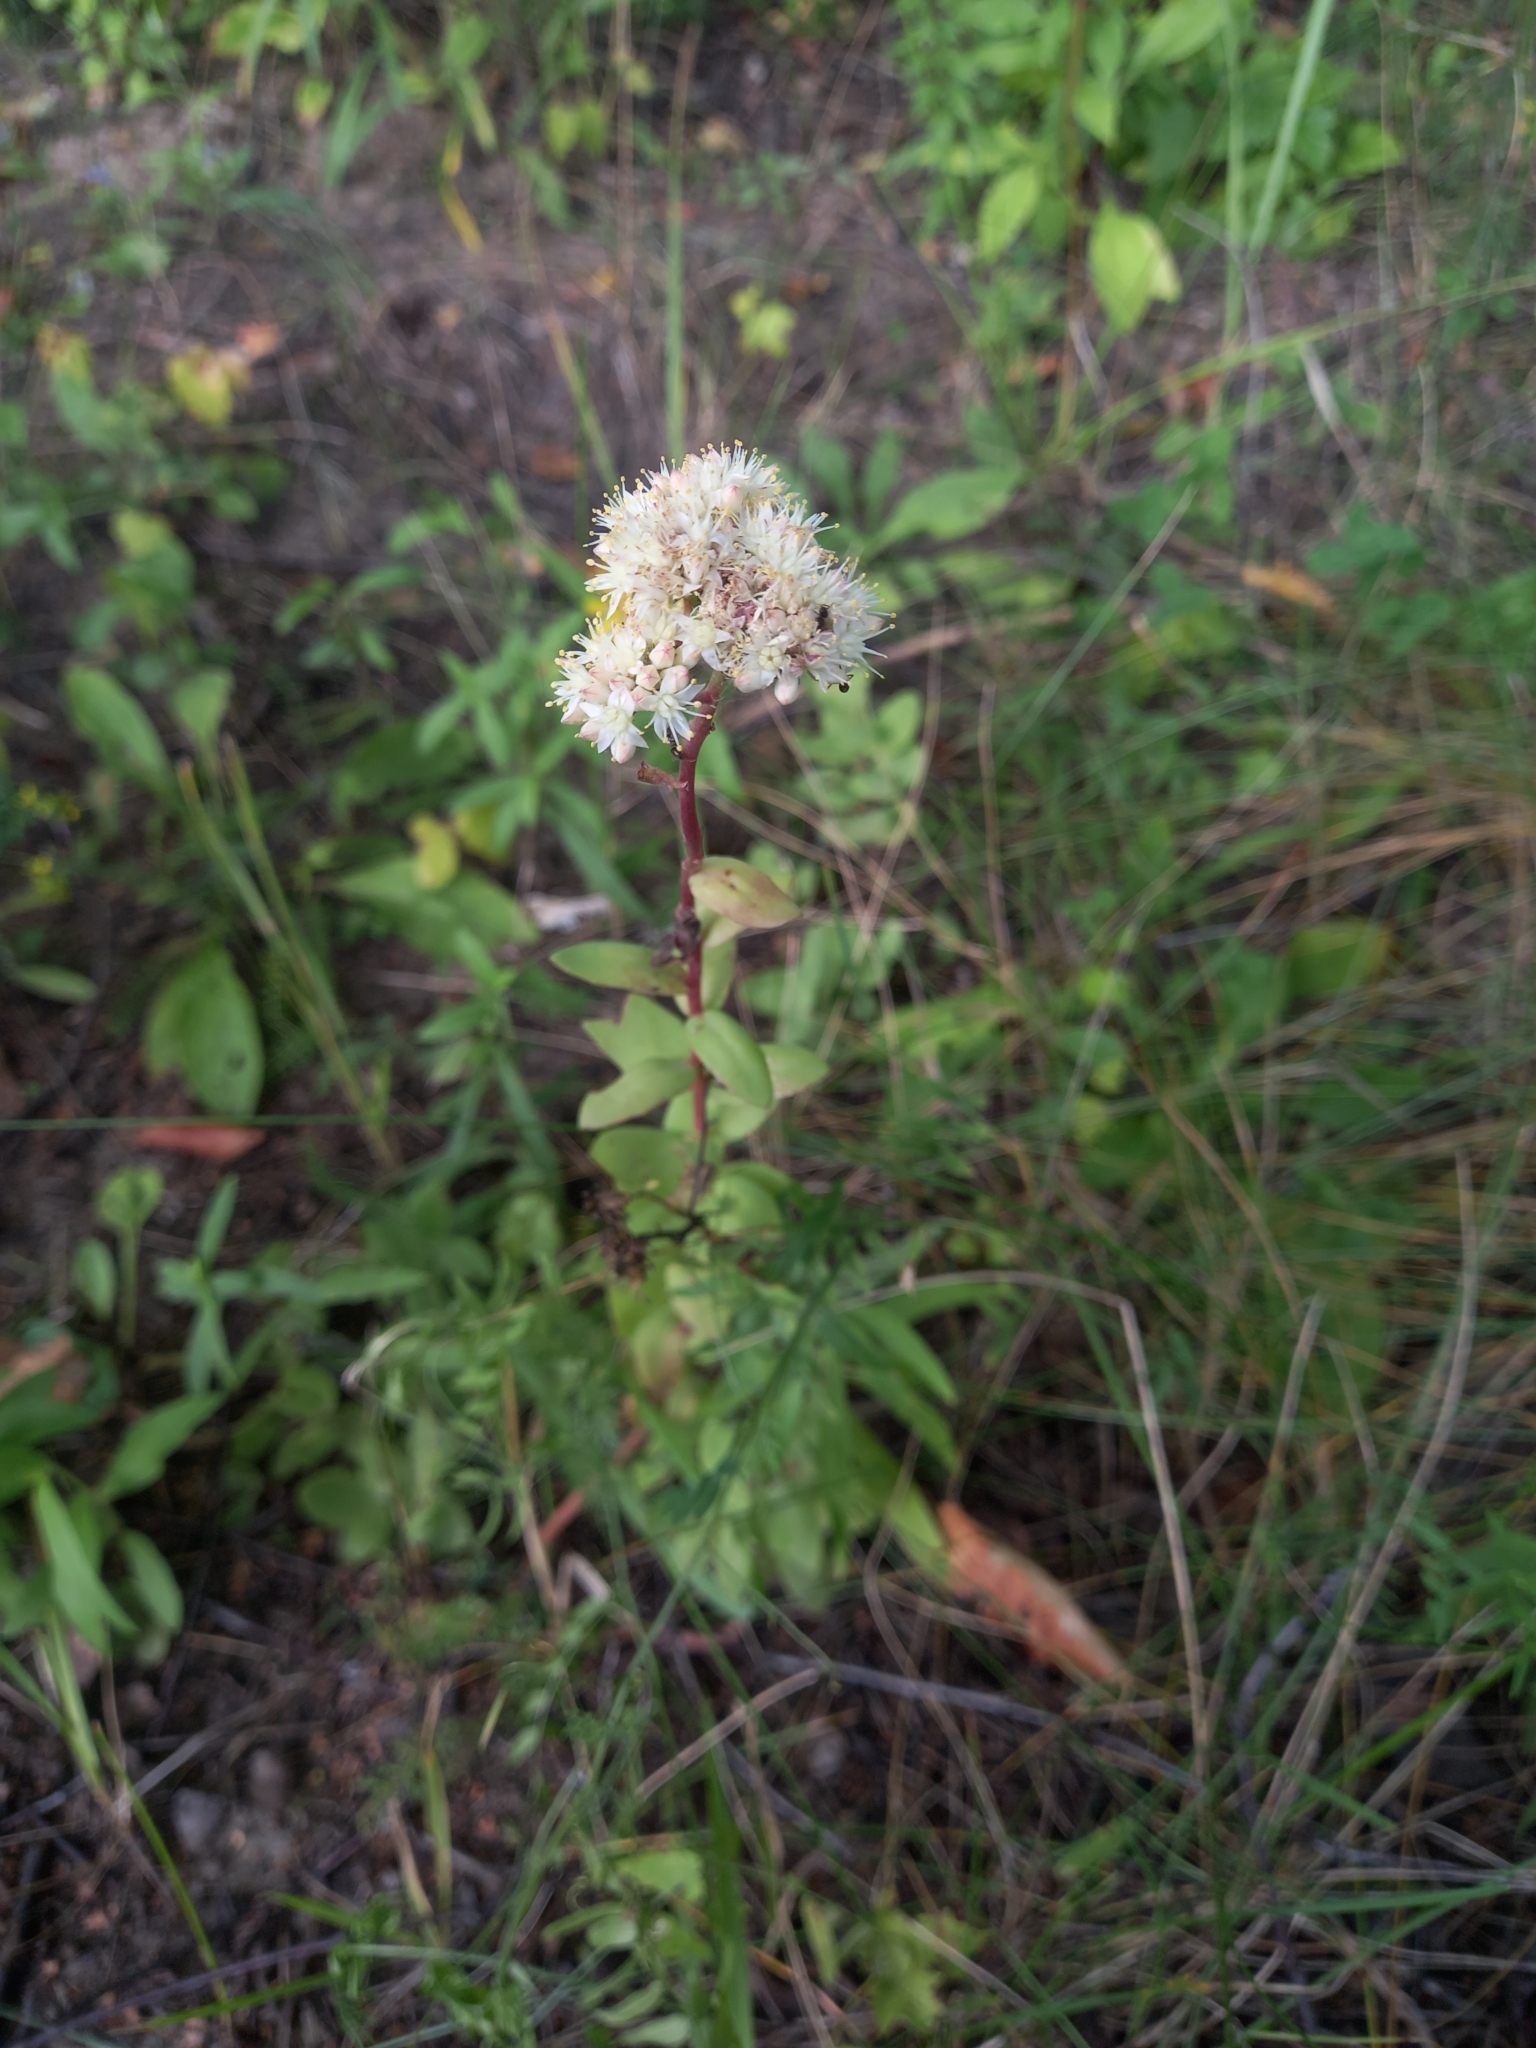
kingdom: Plantae
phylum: Tracheophyta
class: Magnoliopsida
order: Saxifragales
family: Crassulaceae
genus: Hylotelephium
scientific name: Hylotelephium maximum
